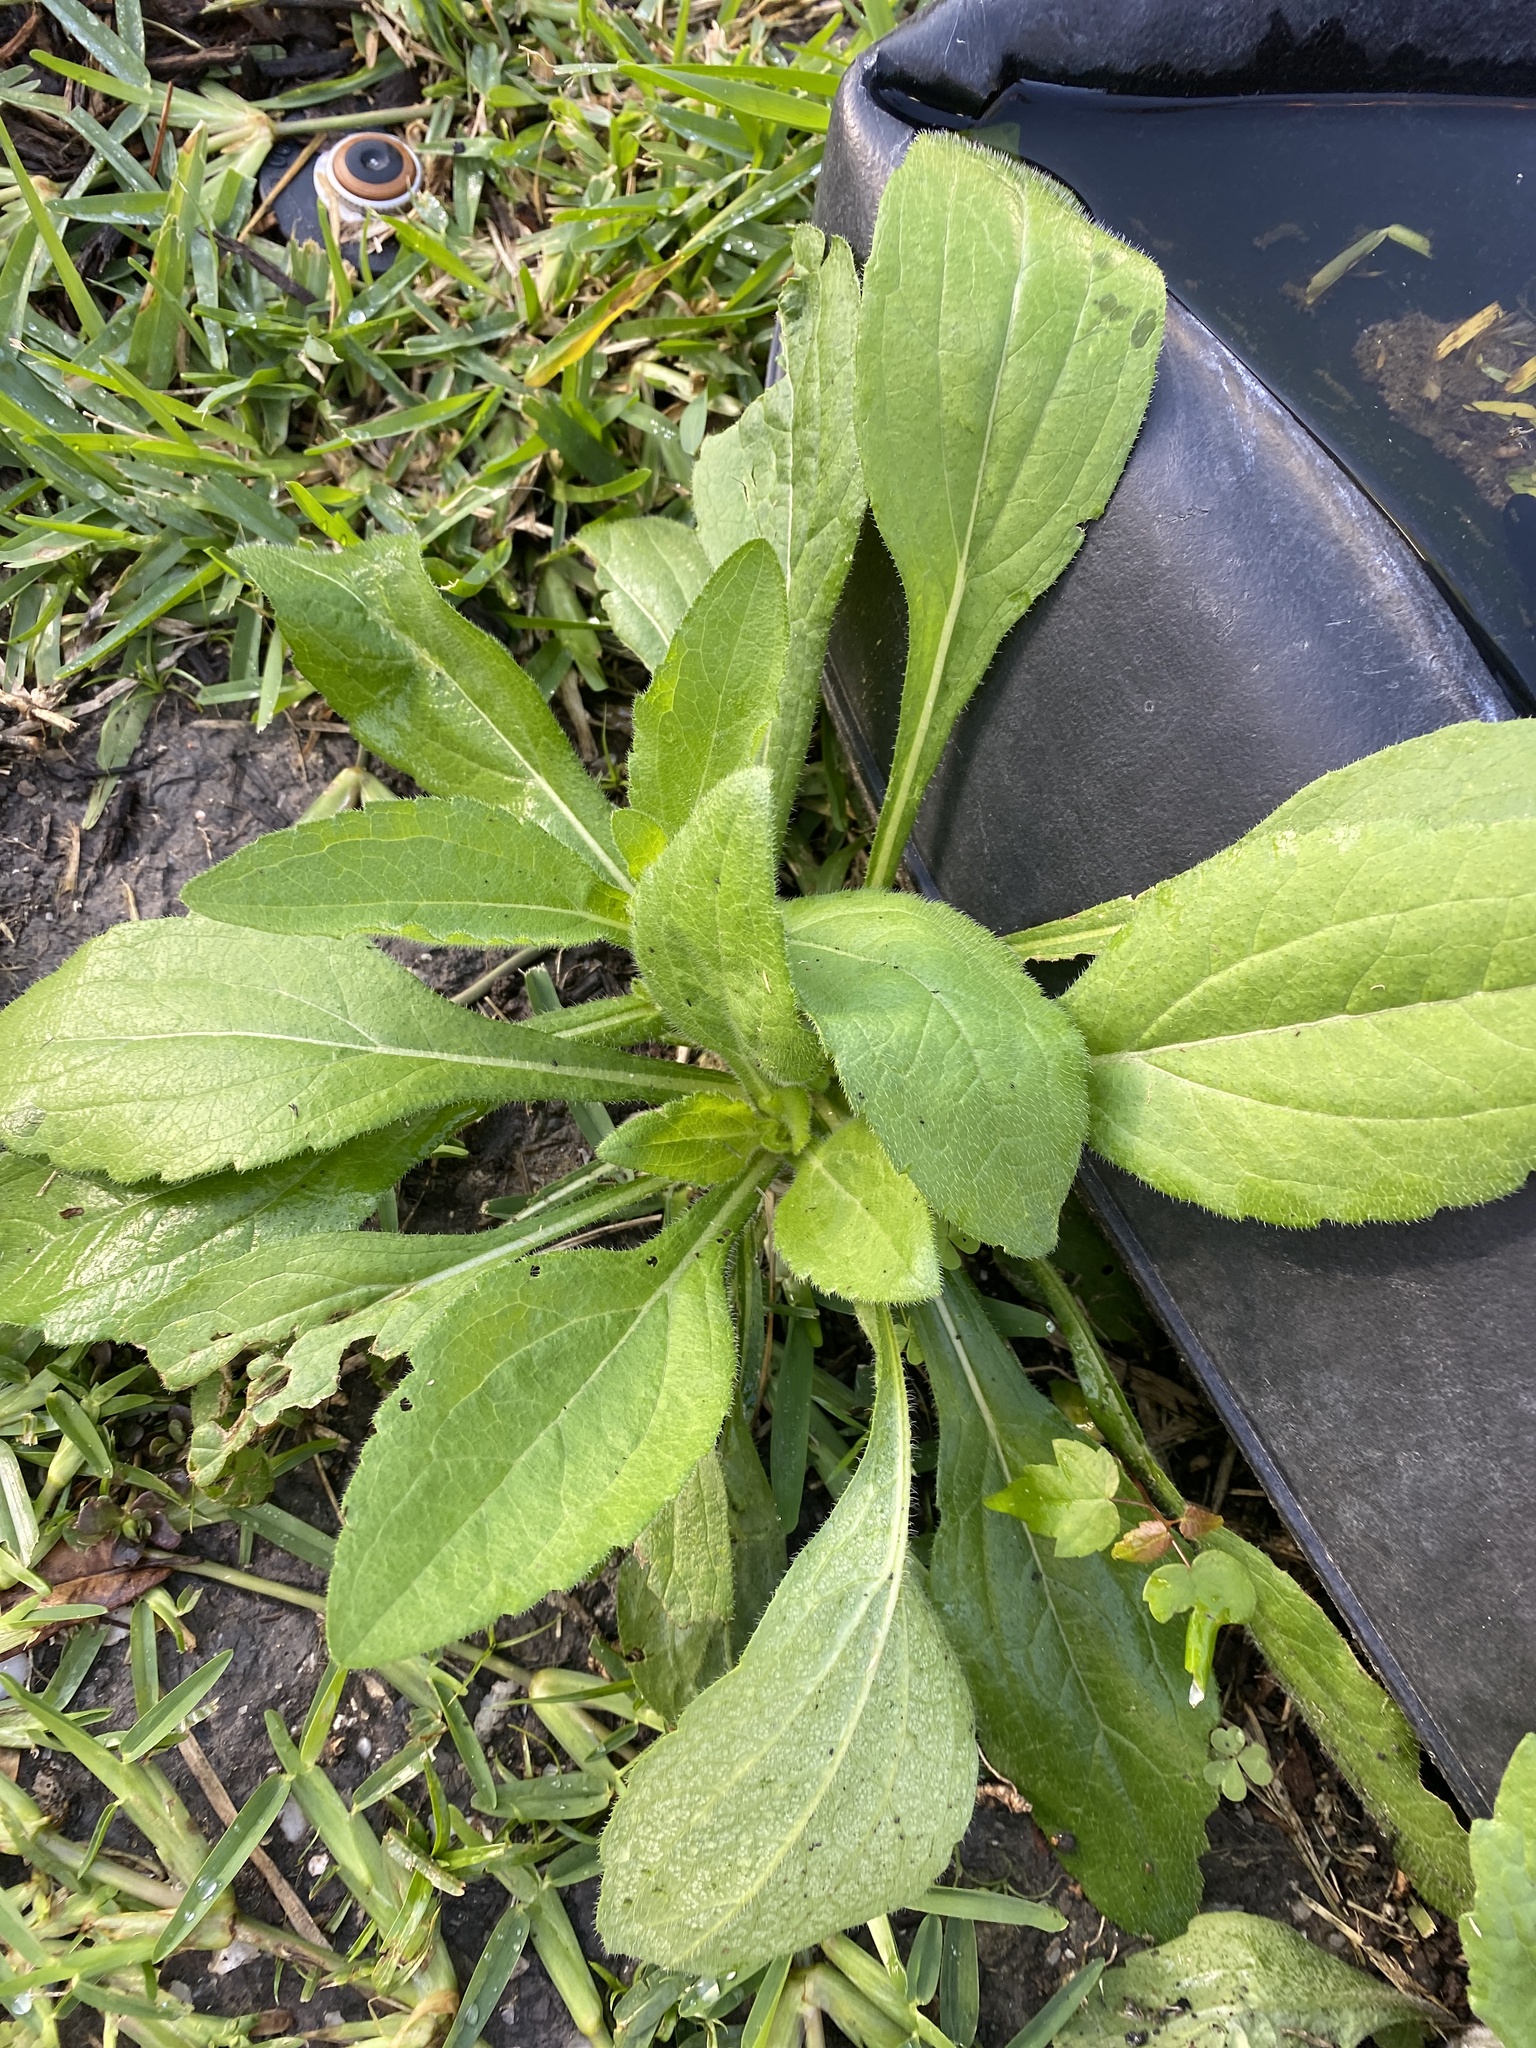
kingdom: Plantae
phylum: Tracheophyta
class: Magnoliopsida
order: Asterales
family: Asteraceae
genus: Rudbeckia
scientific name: Rudbeckia hirta
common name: Black-eyed-susan
